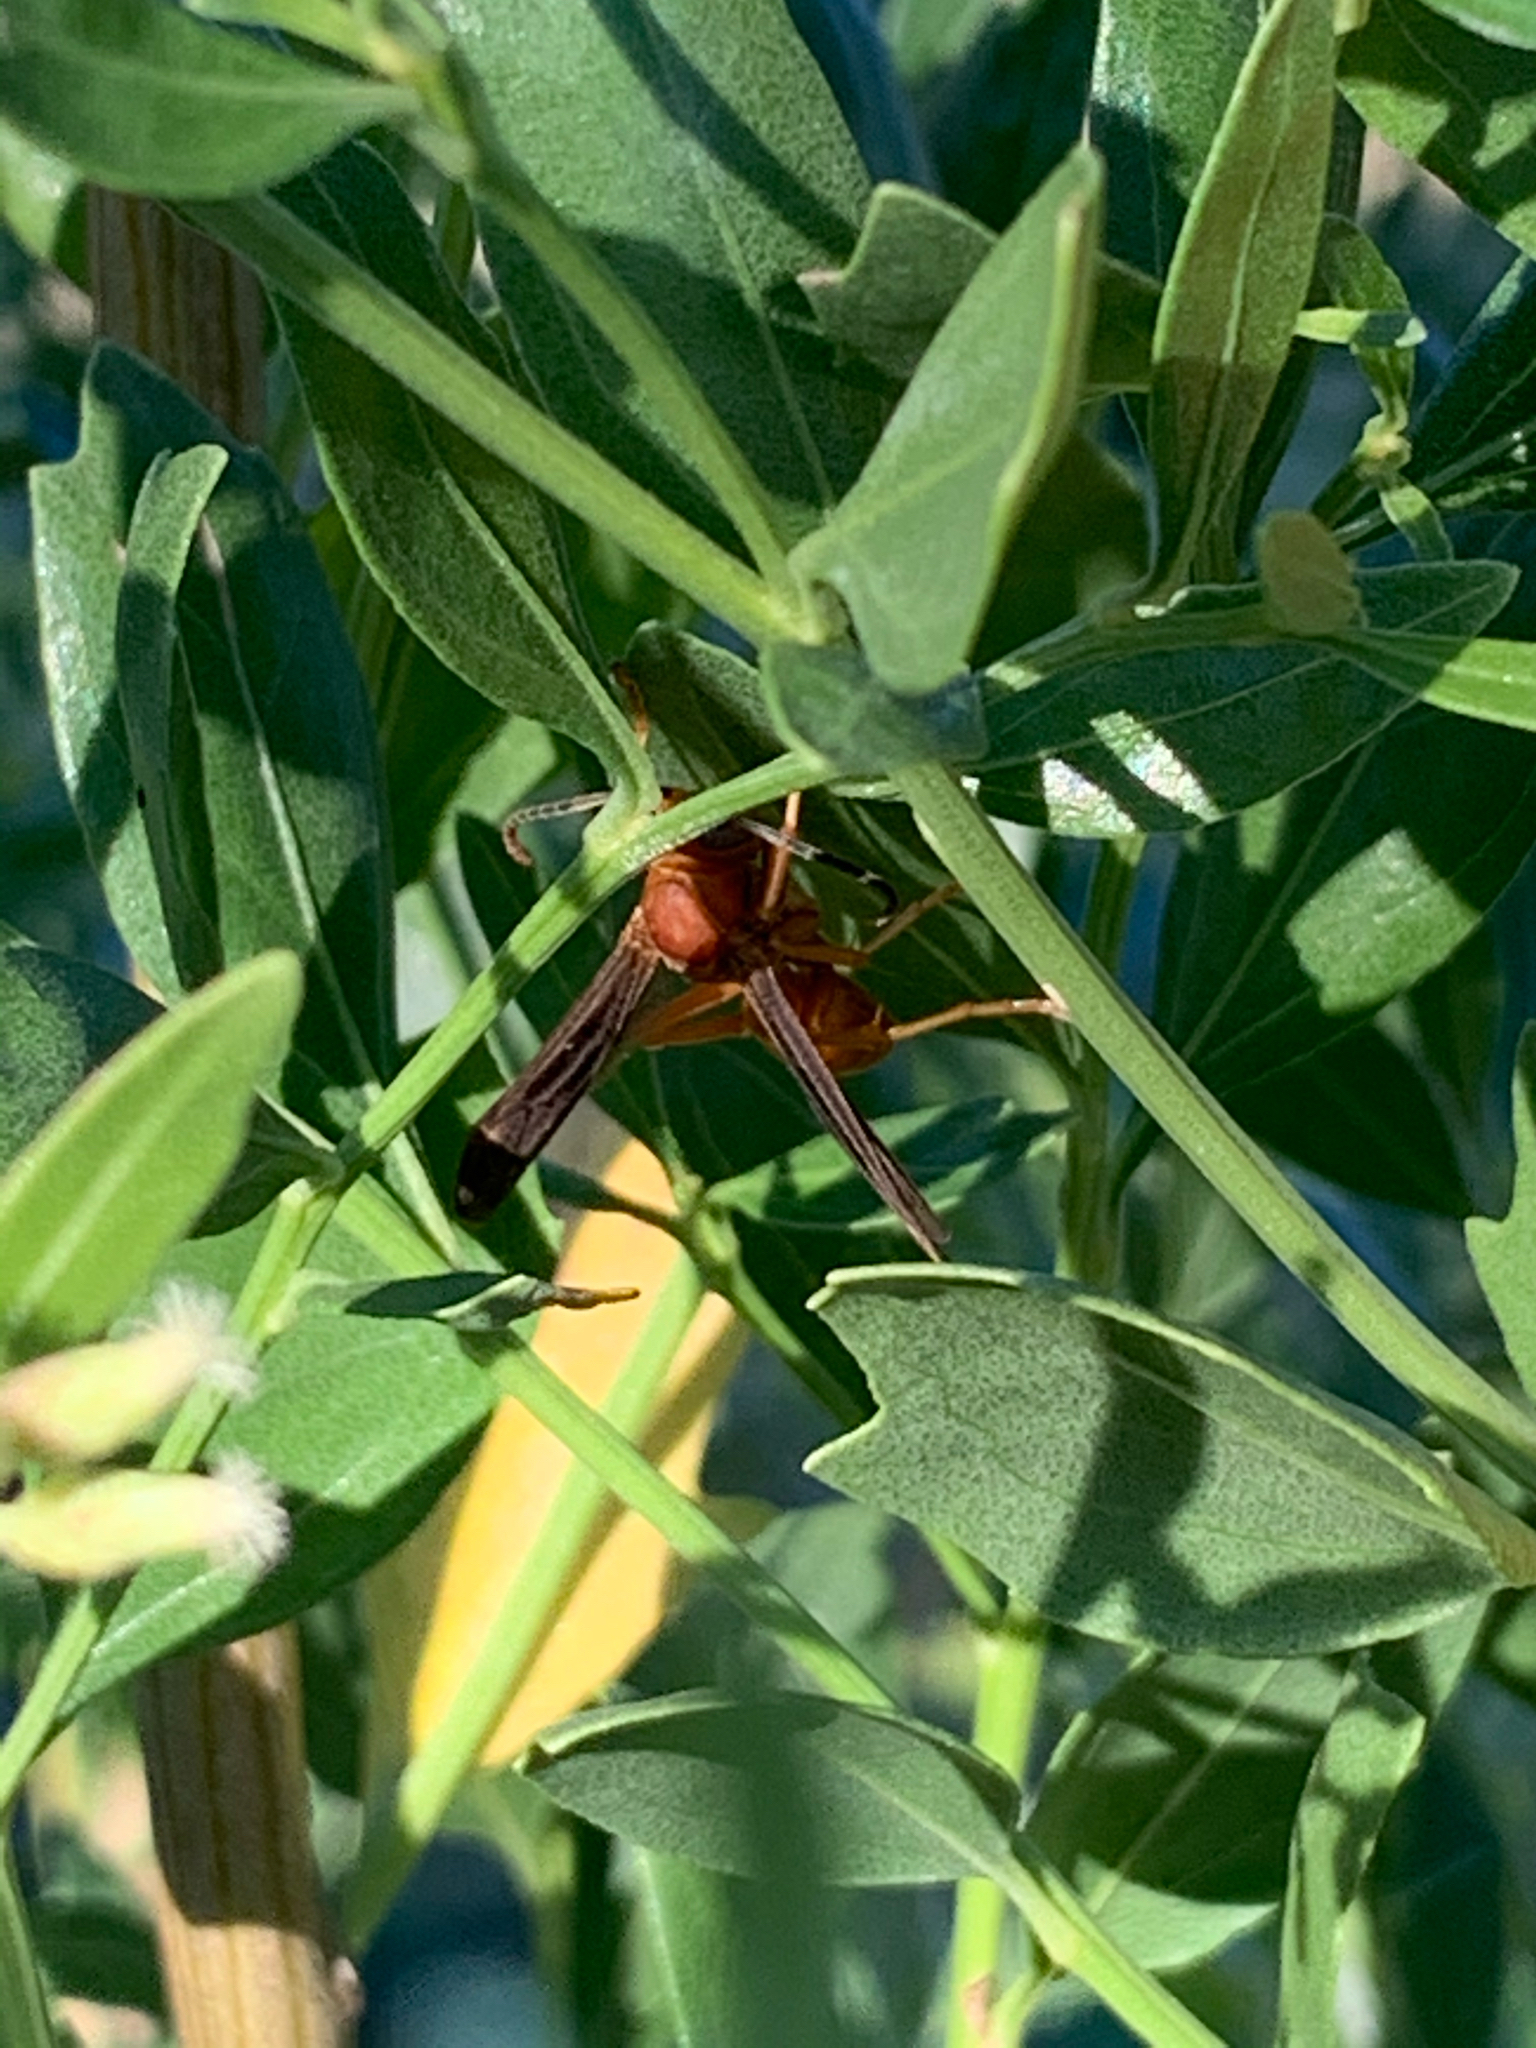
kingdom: Animalia
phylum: Arthropoda
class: Insecta
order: Hymenoptera
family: Vespidae
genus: Fuscopolistes
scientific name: Fuscopolistes
